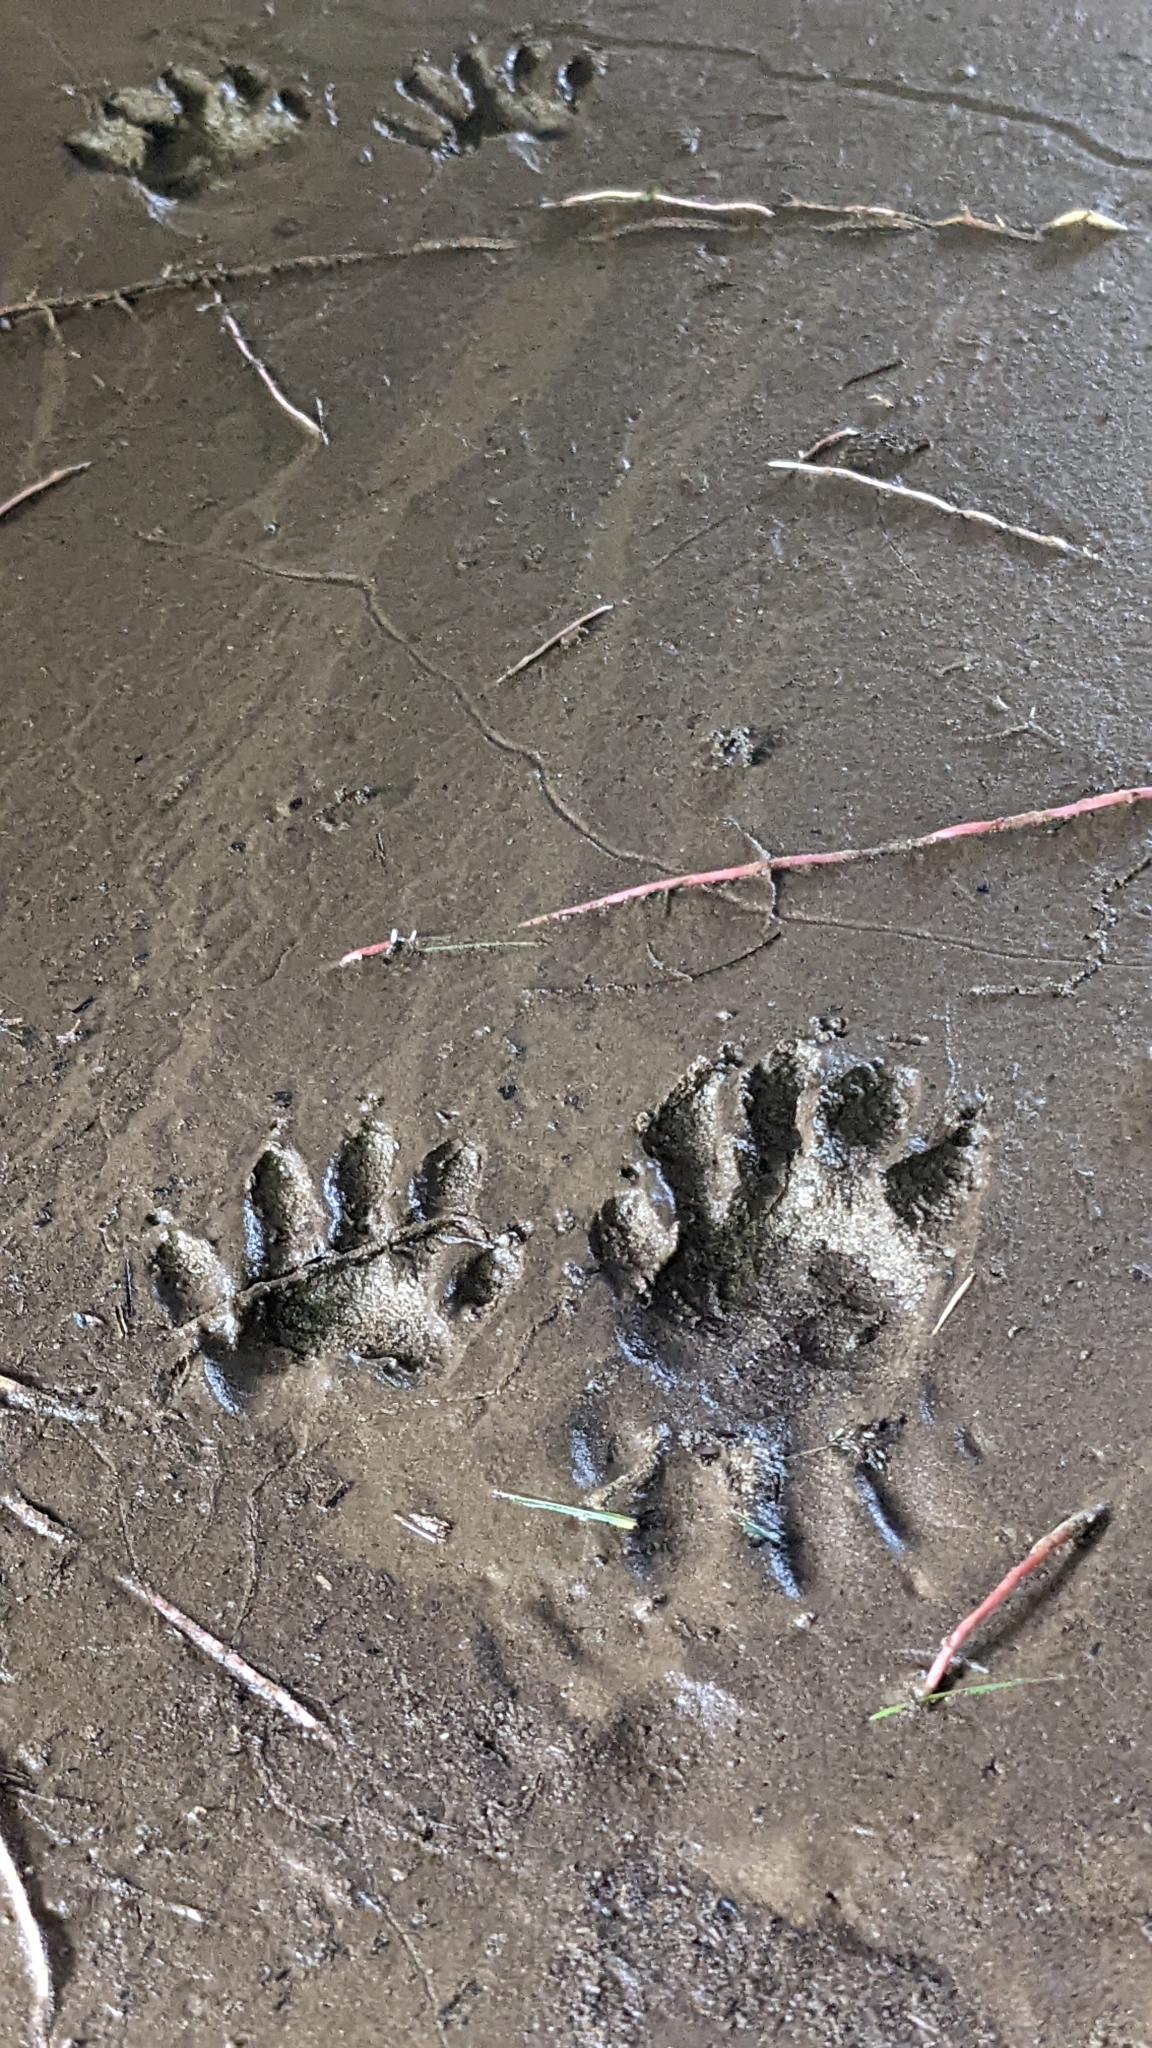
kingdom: Animalia
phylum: Chordata
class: Mammalia
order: Carnivora
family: Procyonidae
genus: Procyon
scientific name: Procyon lotor
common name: Raccoon
